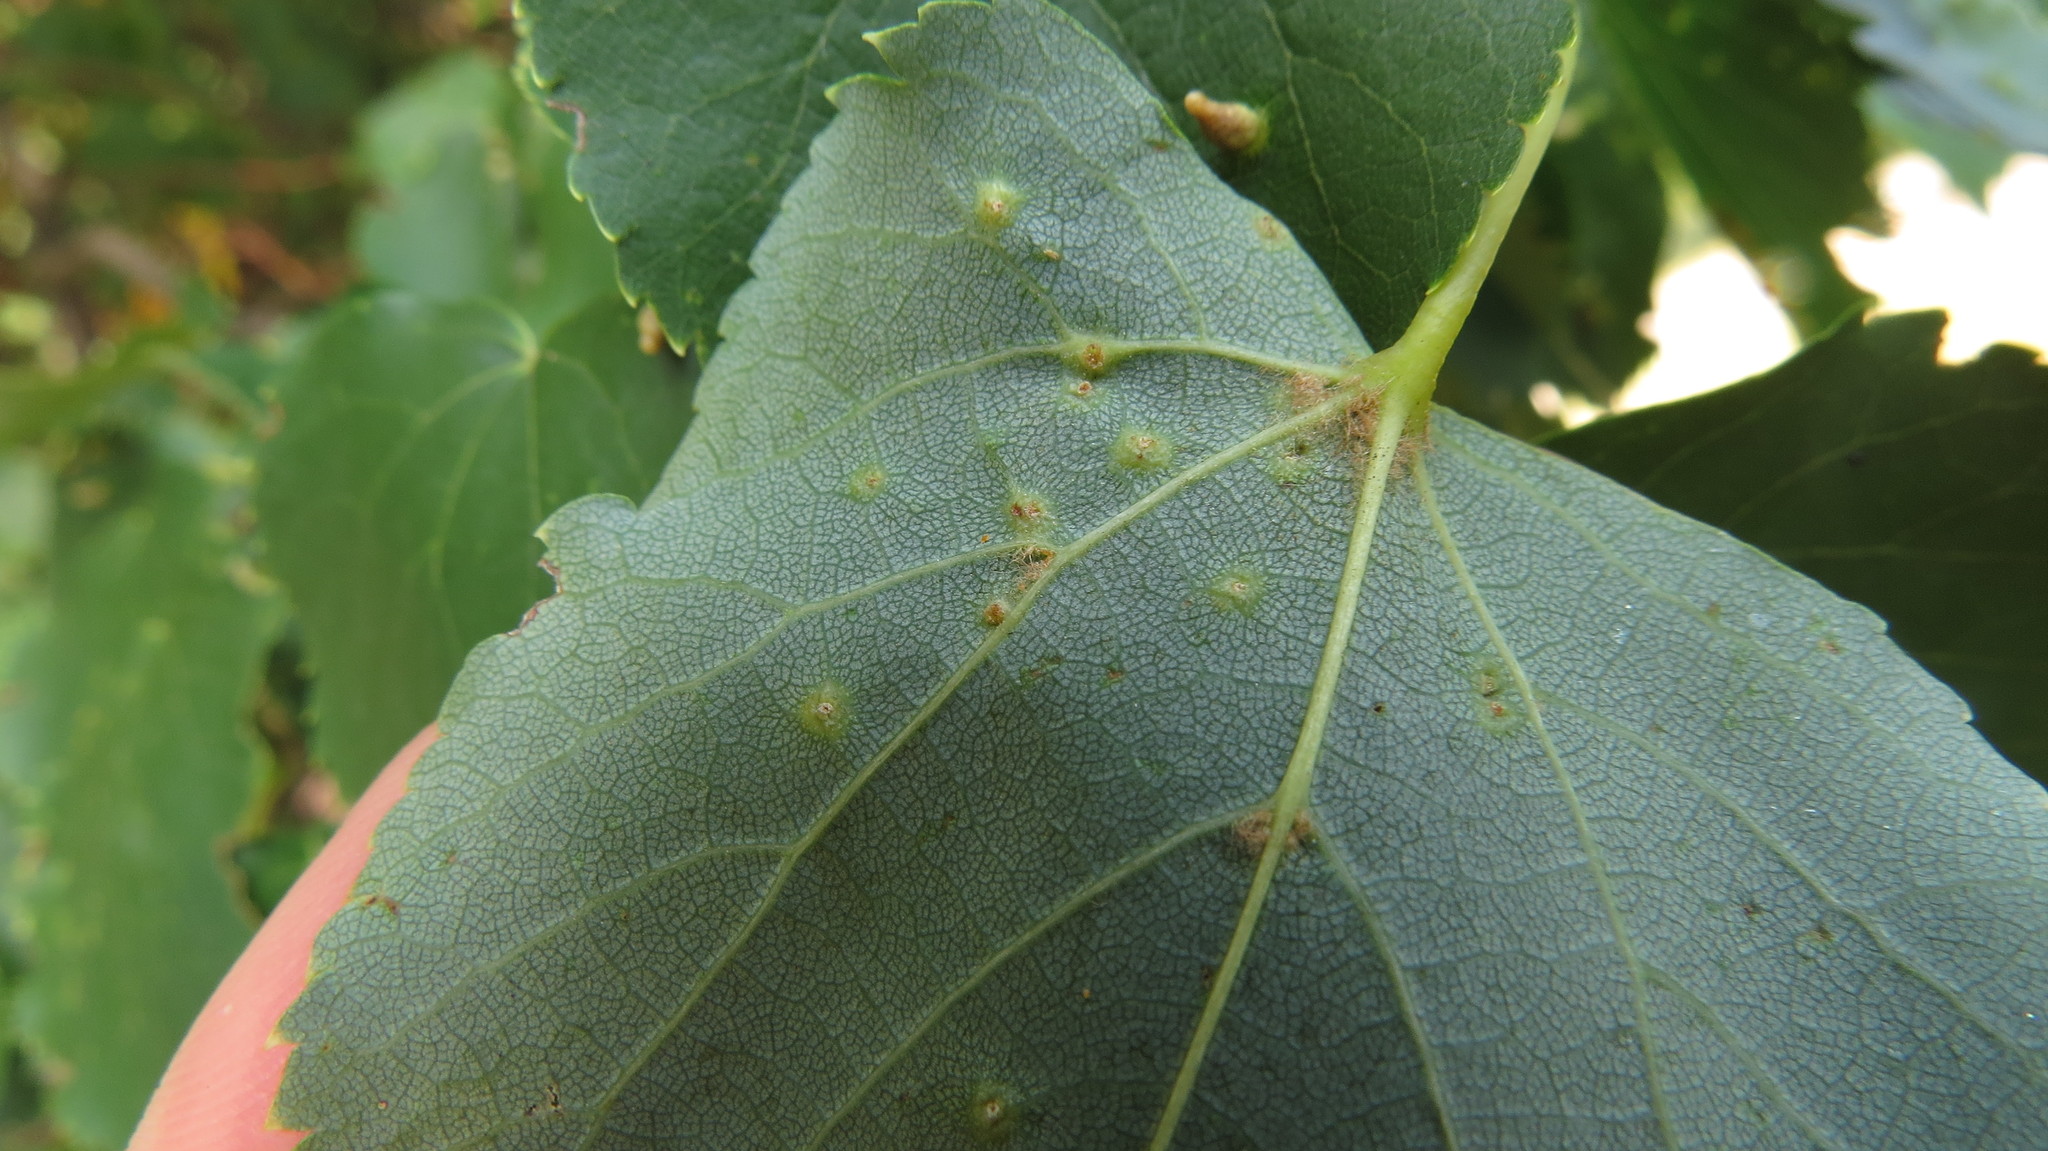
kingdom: Animalia
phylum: Arthropoda
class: Arachnida
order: Trombidiformes
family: Eriophyidae
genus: Eriophyes
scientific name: Eriophyes tiliae
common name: Red nail gall mite
